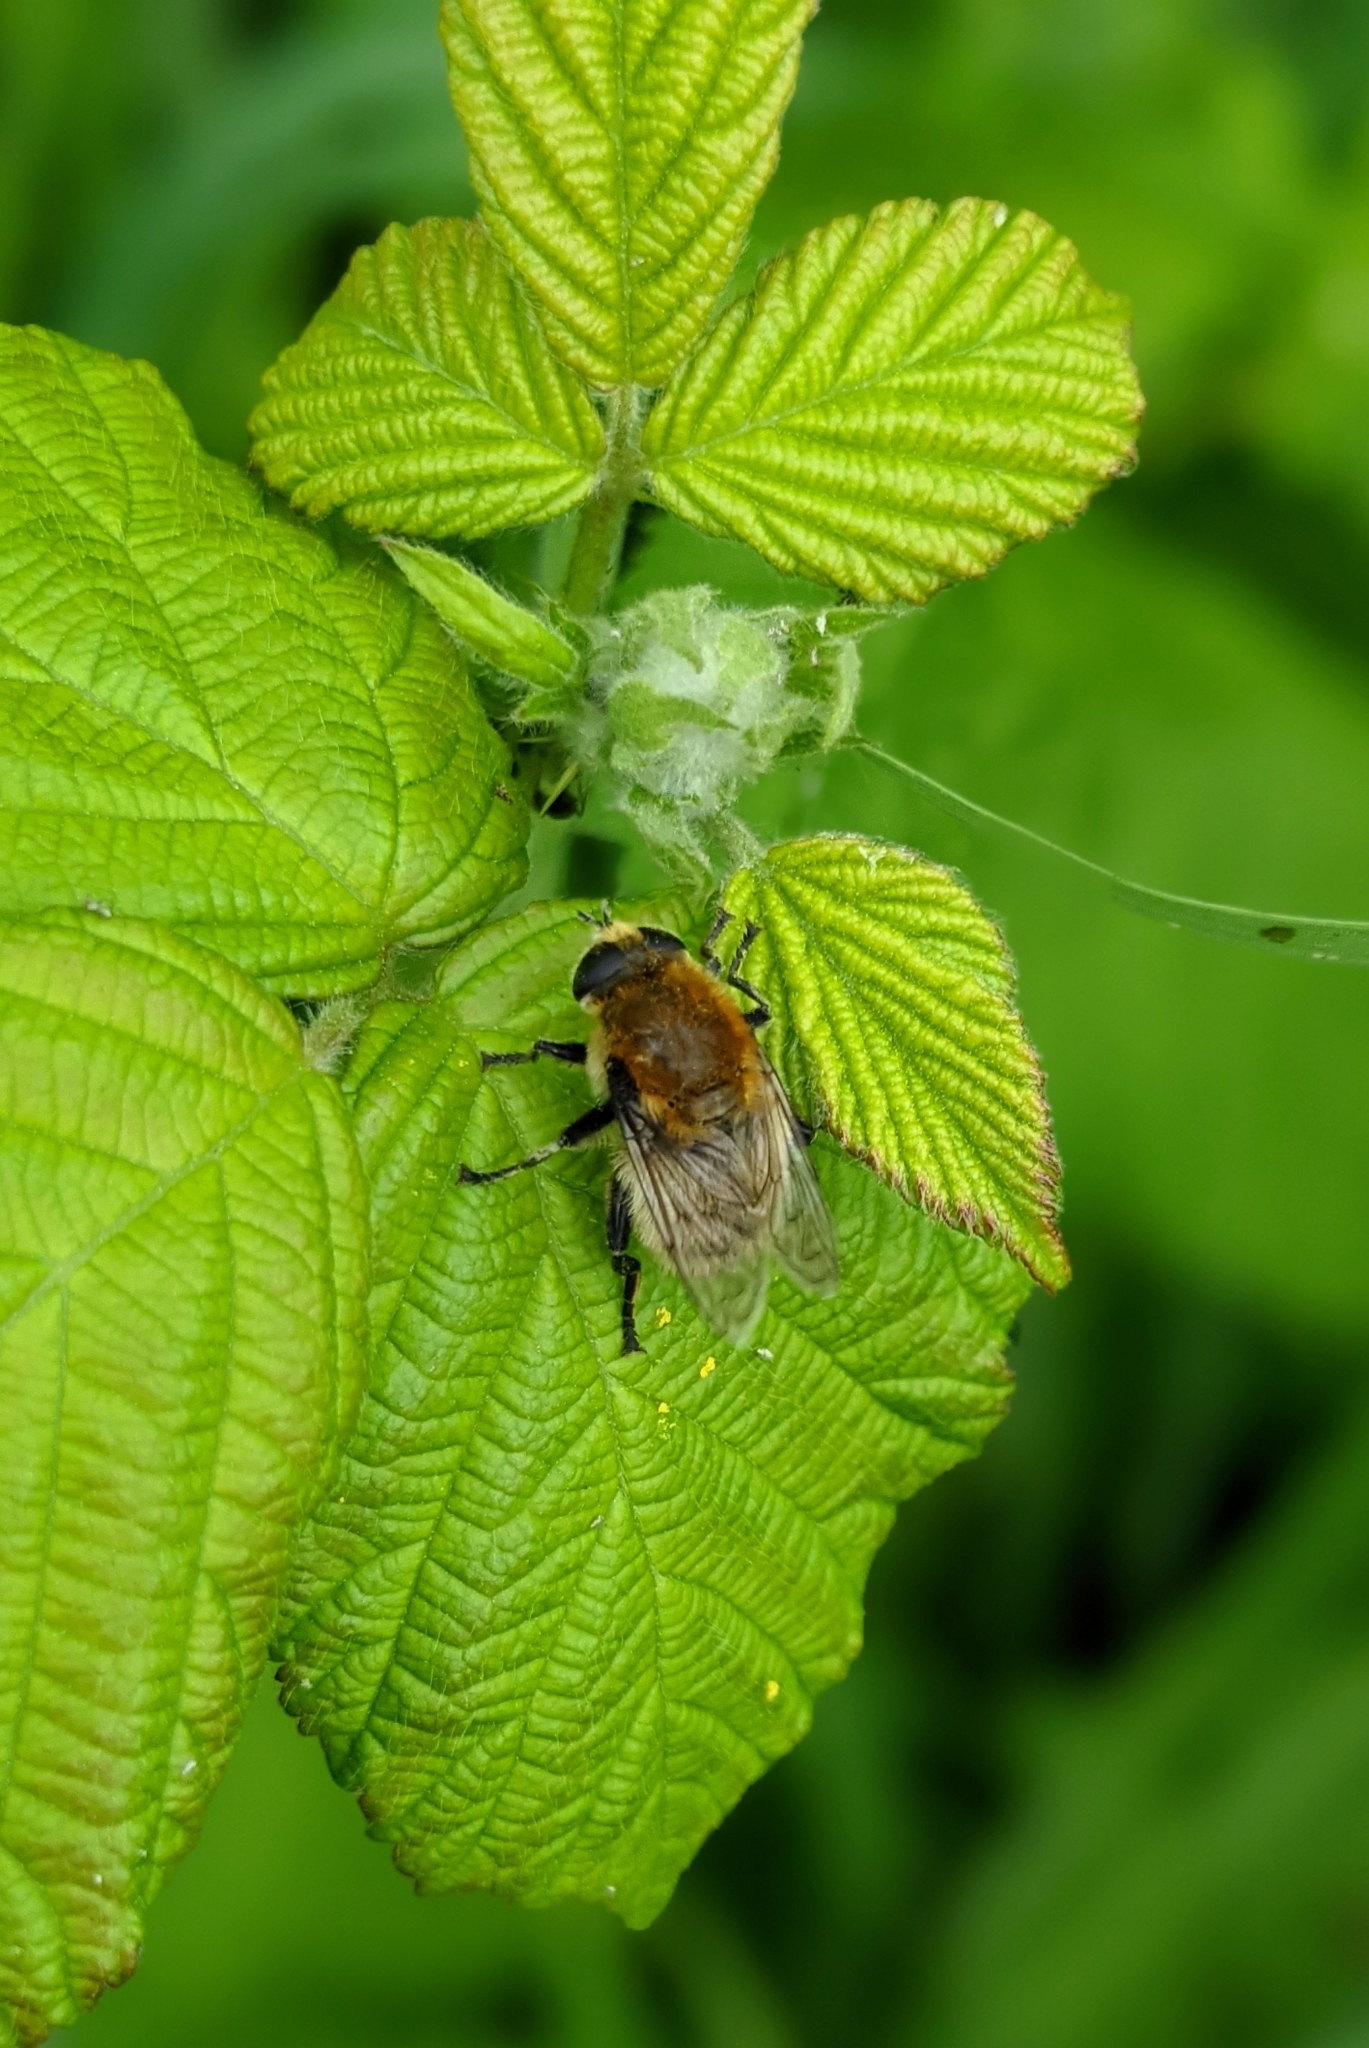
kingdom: Animalia
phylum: Arthropoda
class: Insecta
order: Diptera
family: Syrphidae
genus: Merodon
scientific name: Merodon equestris
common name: Greater bulb-fly
